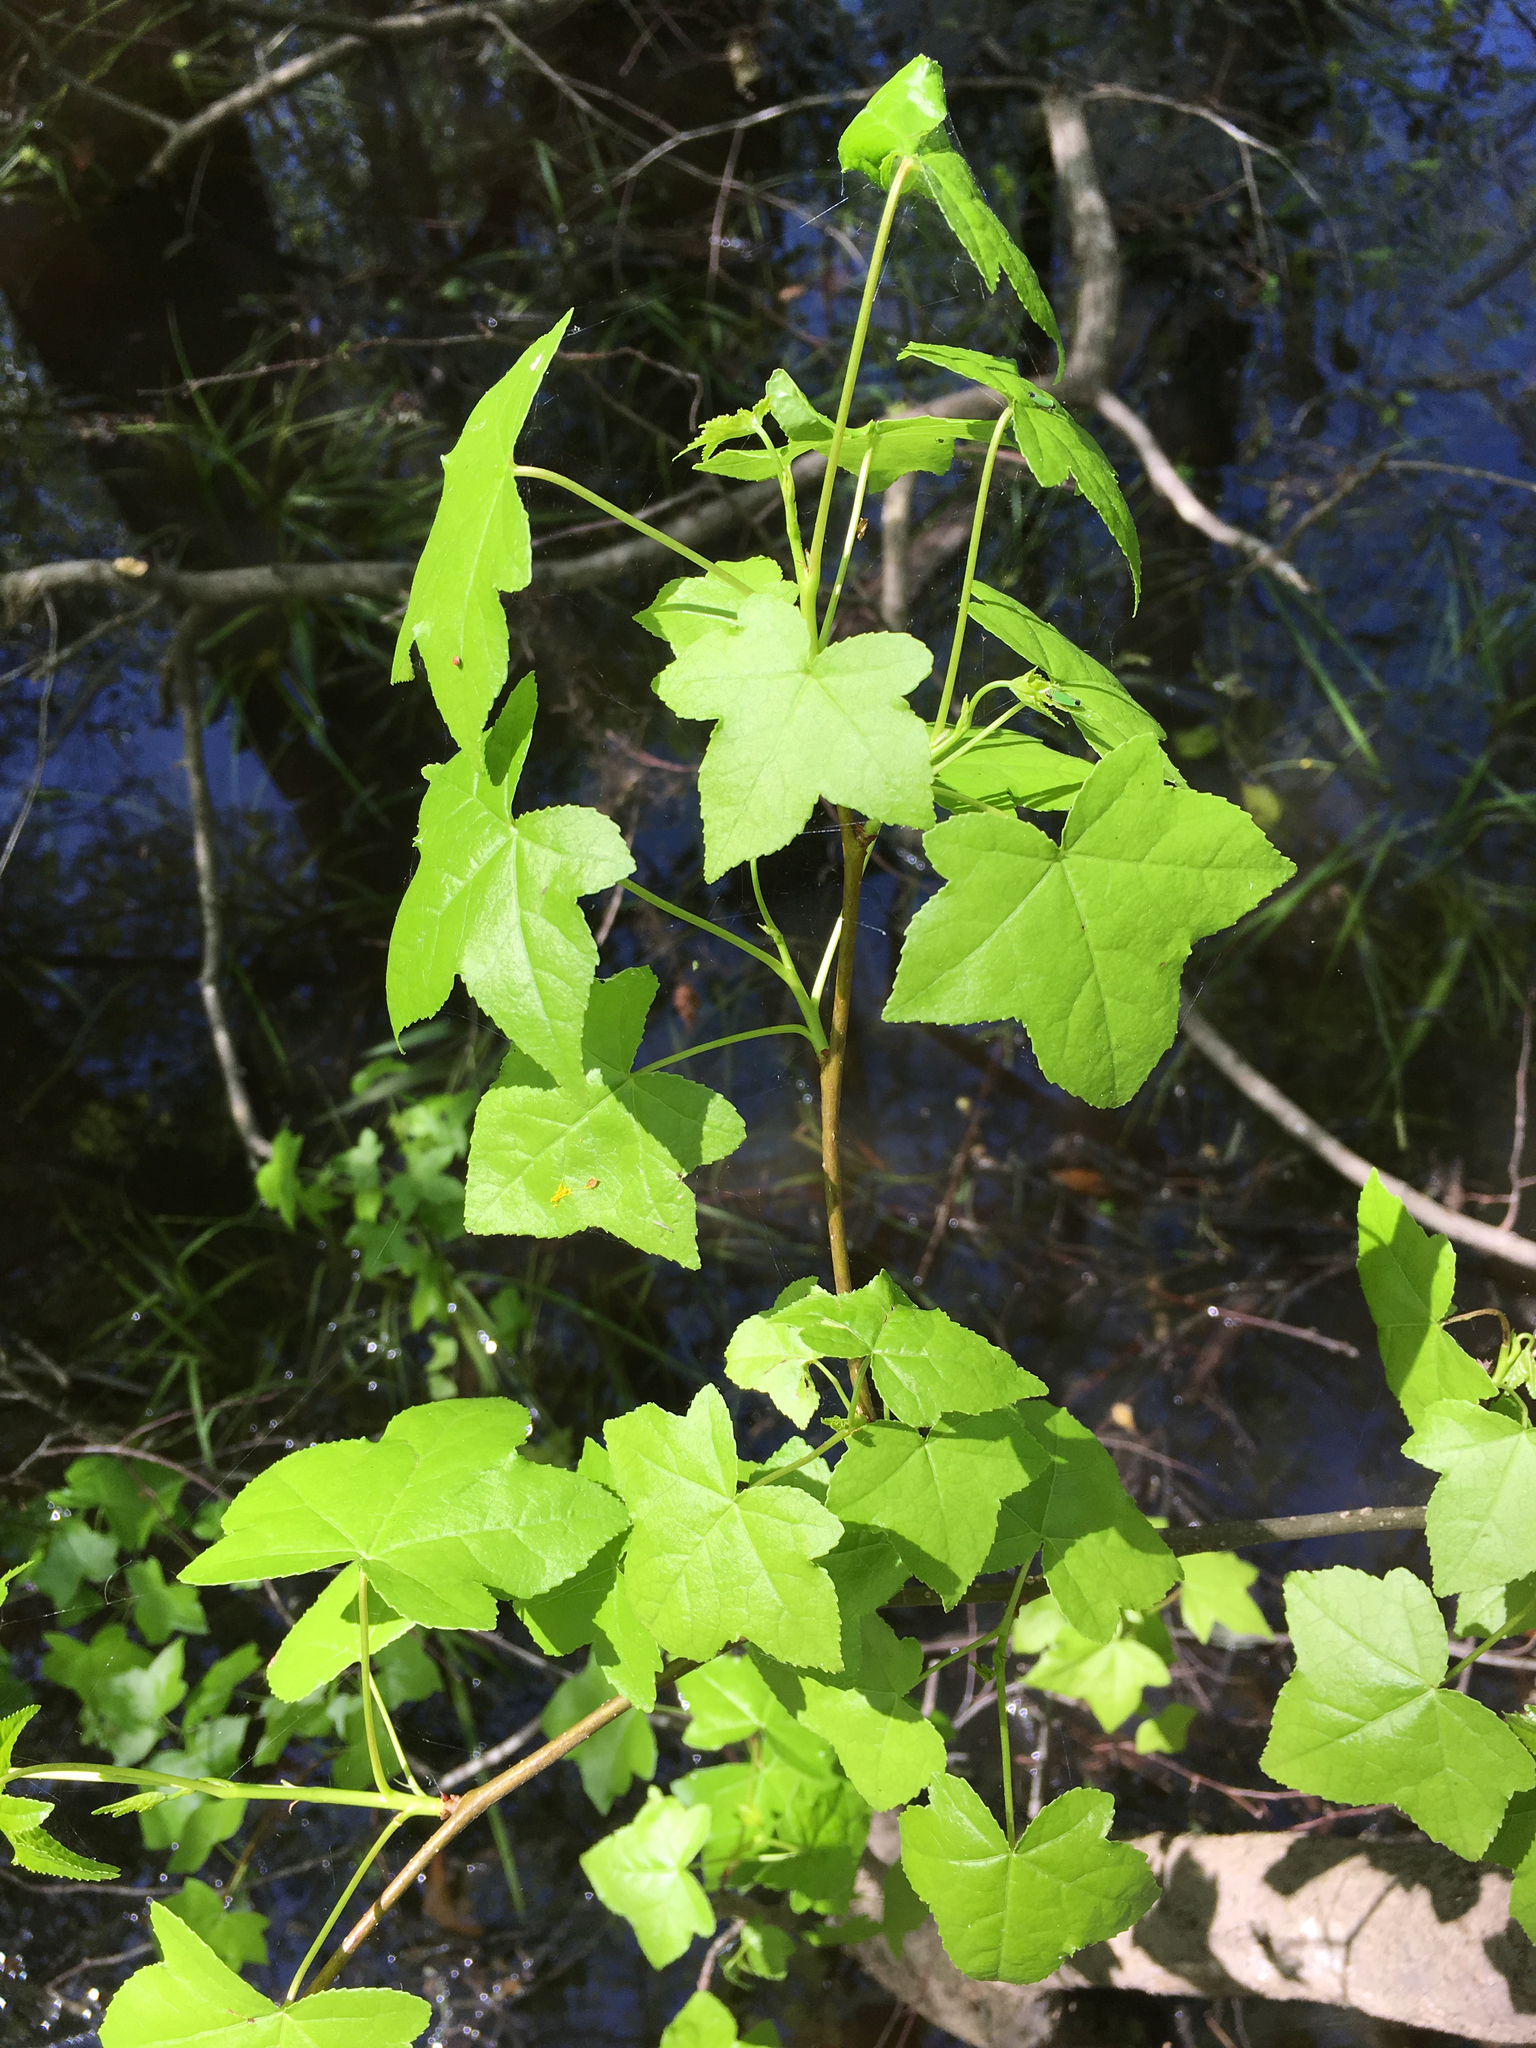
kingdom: Plantae
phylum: Tracheophyta
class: Magnoliopsida
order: Saxifragales
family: Altingiaceae
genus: Liquidambar
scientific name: Liquidambar styraciflua
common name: Sweet gum
